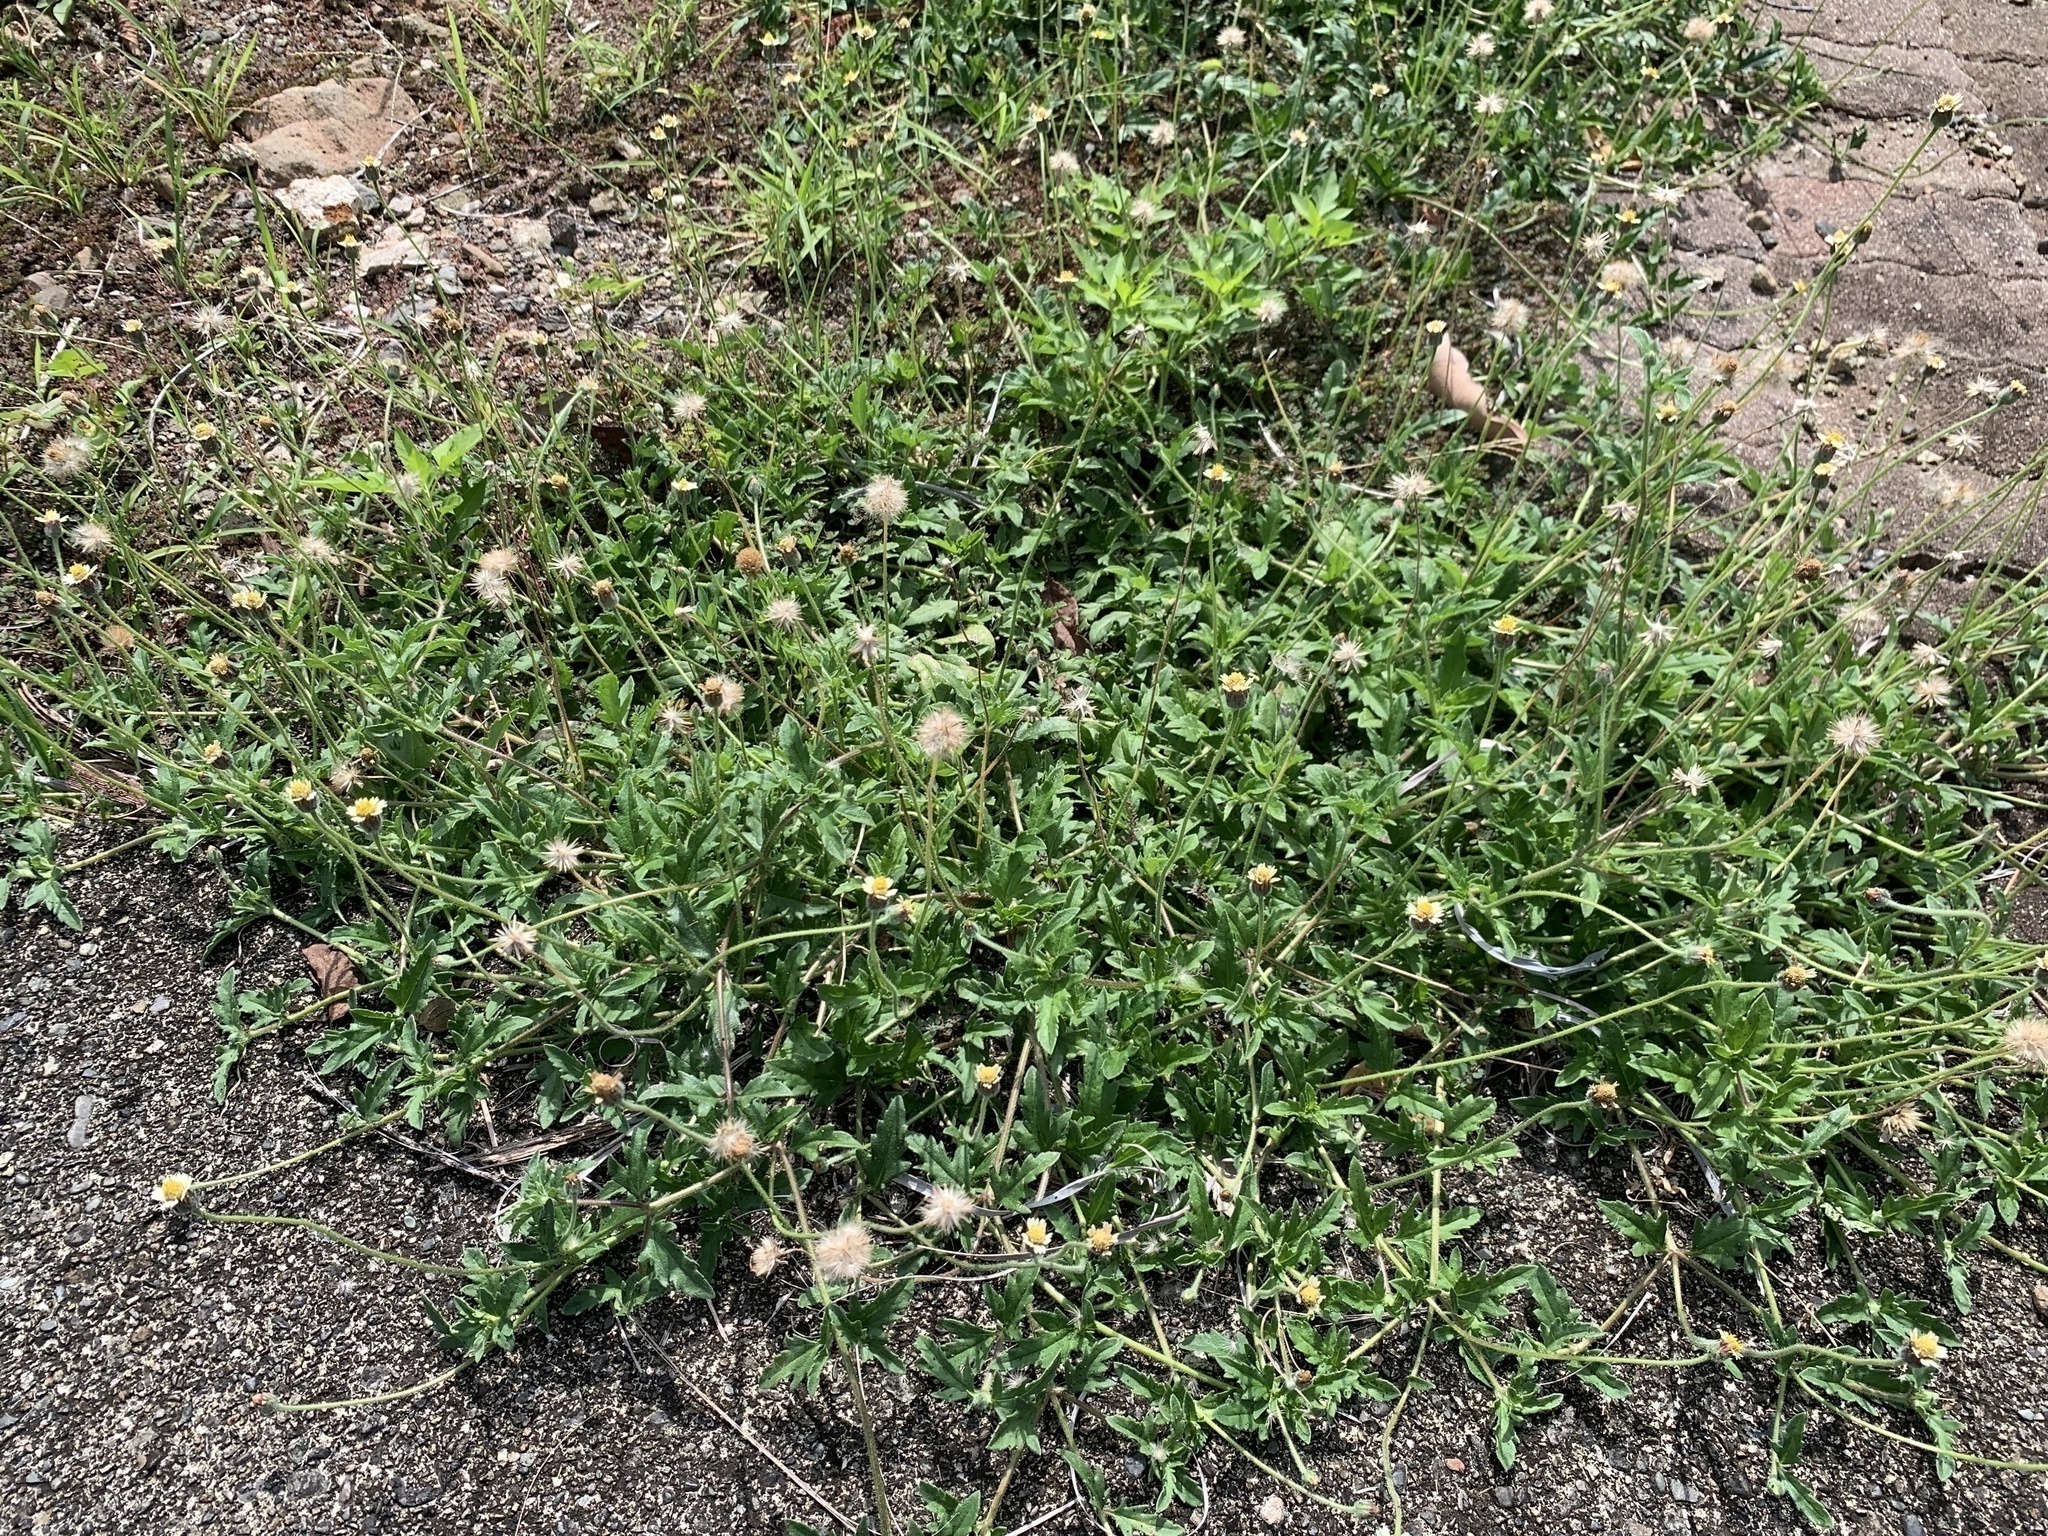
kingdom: Plantae
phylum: Tracheophyta
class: Magnoliopsida
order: Asterales
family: Asteraceae
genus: Tridax
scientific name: Tridax procumbens
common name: Coatbuttons
